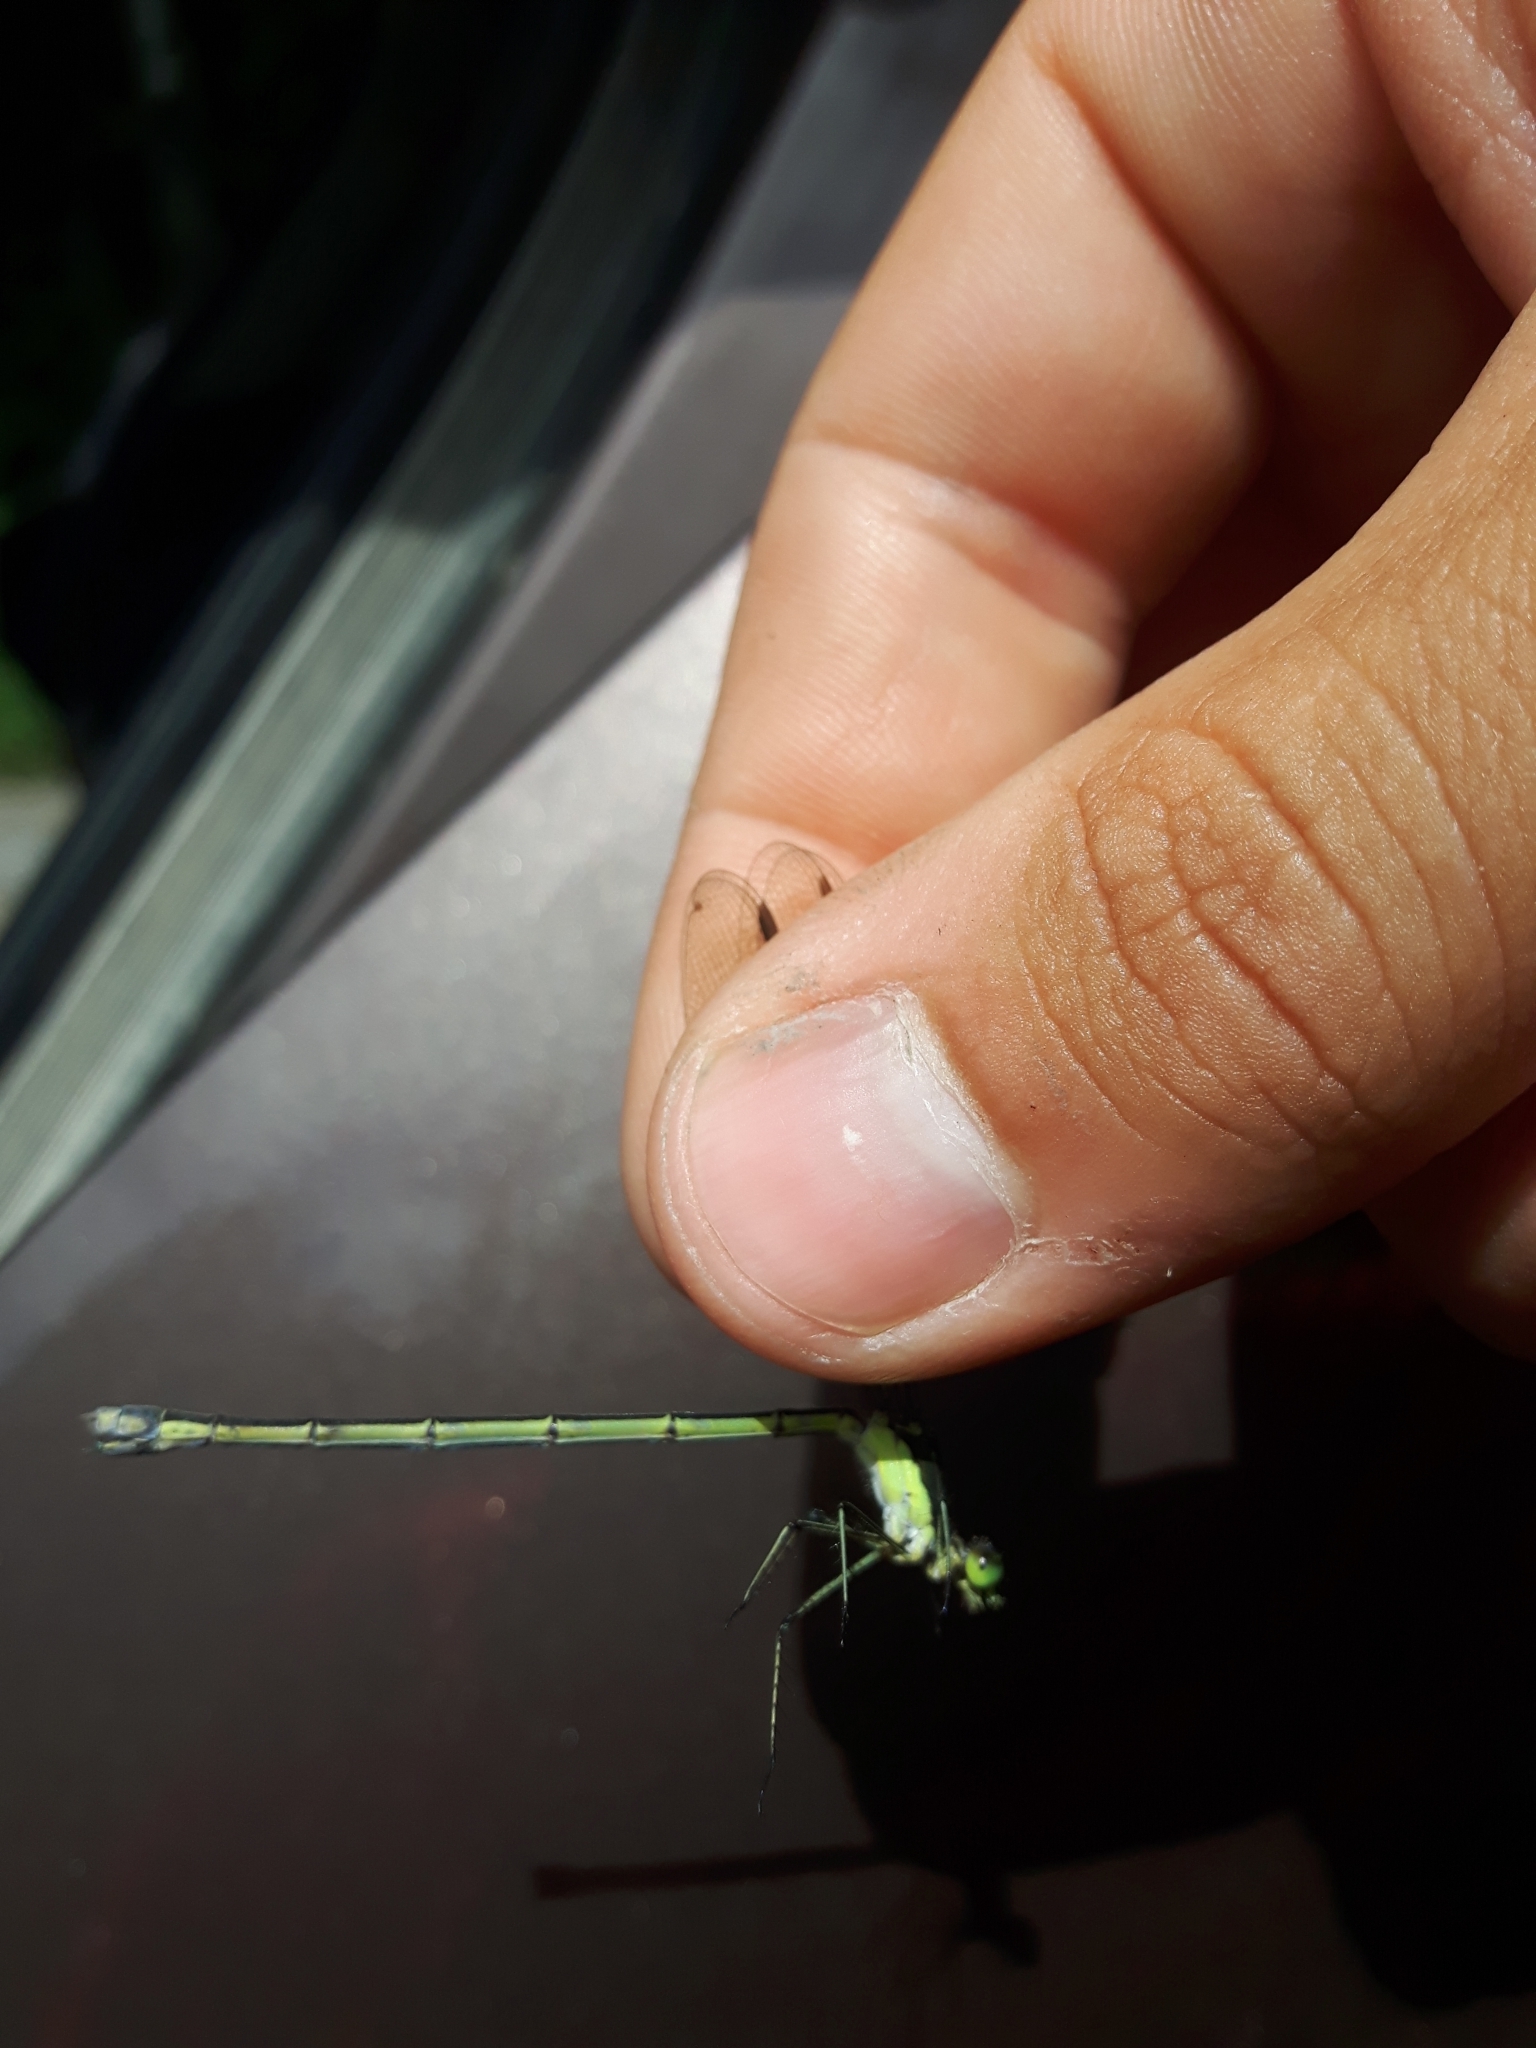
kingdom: Animalia
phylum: Arthropoda
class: Insecta
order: Odonata
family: Lestidae
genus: Lestes
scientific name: Lestes inaequalis
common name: Elegant spreadwing
